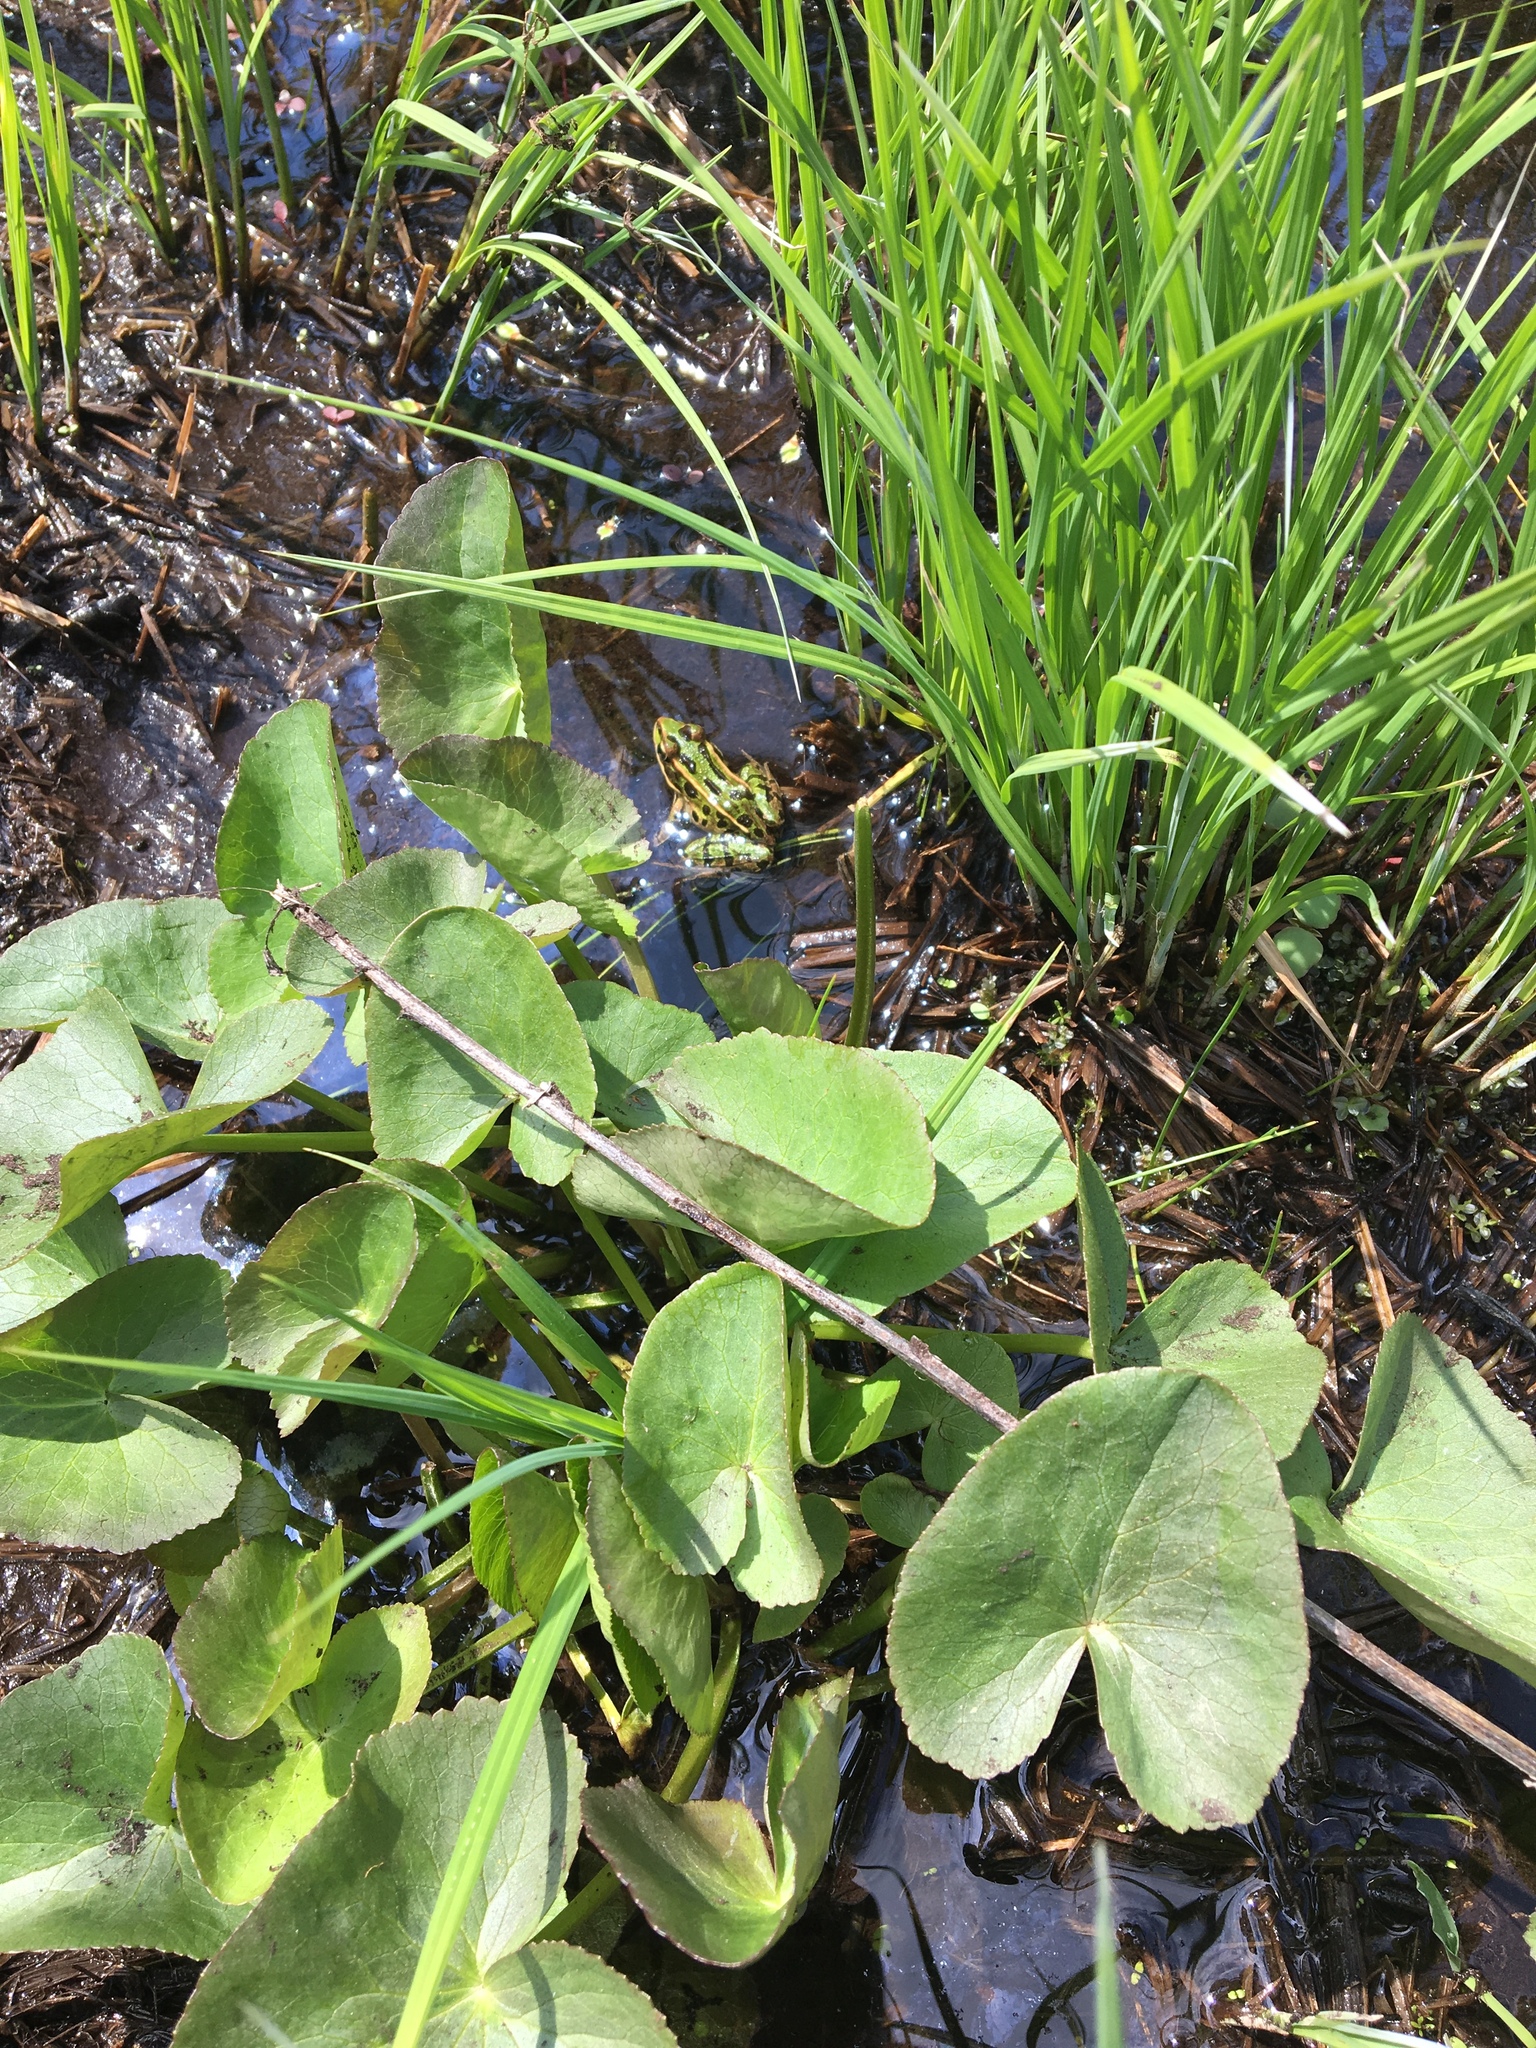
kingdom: Animalia
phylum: Chordata
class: Amphibia
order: Anura
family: Ranidae
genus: Lithobates
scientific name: Lithobates pipiens
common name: Northern leopard frog
